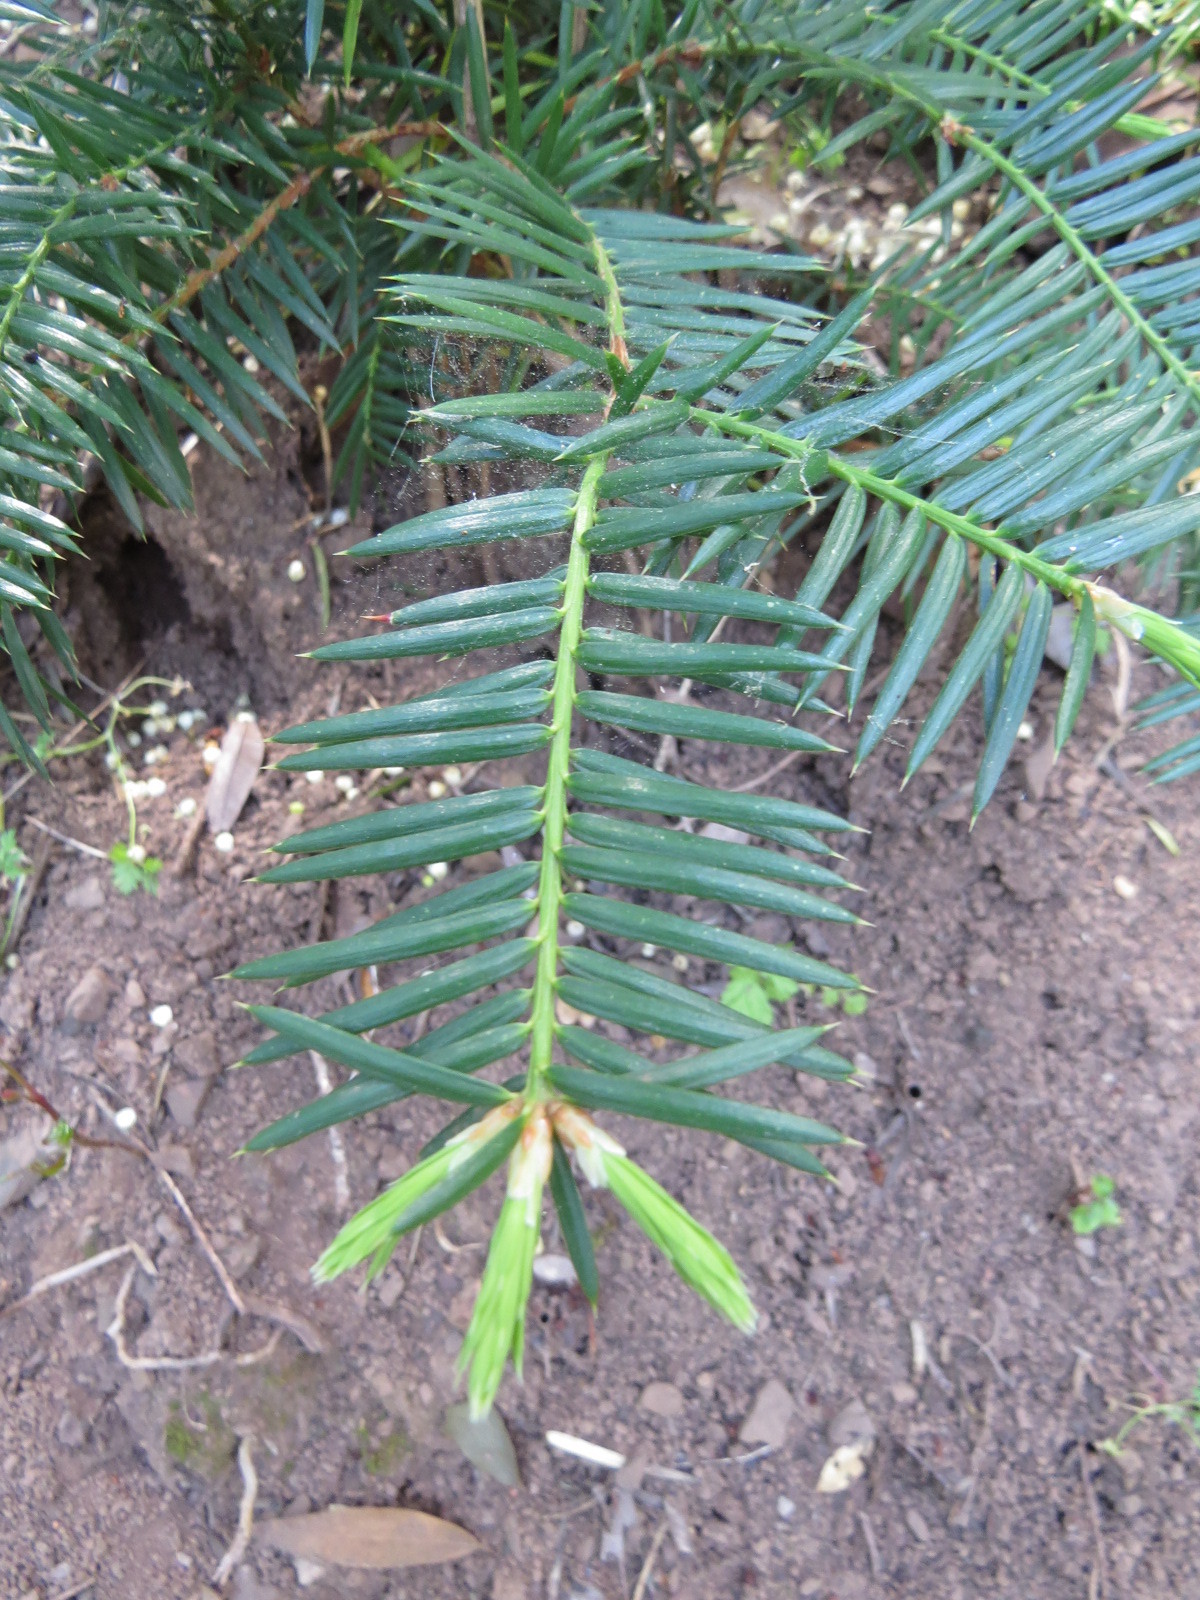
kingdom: Plantae
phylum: Tracheophyta
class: Pinopsida
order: Pinales
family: Taxaceae
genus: Torreya
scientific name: Torreya californica
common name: California torreya
